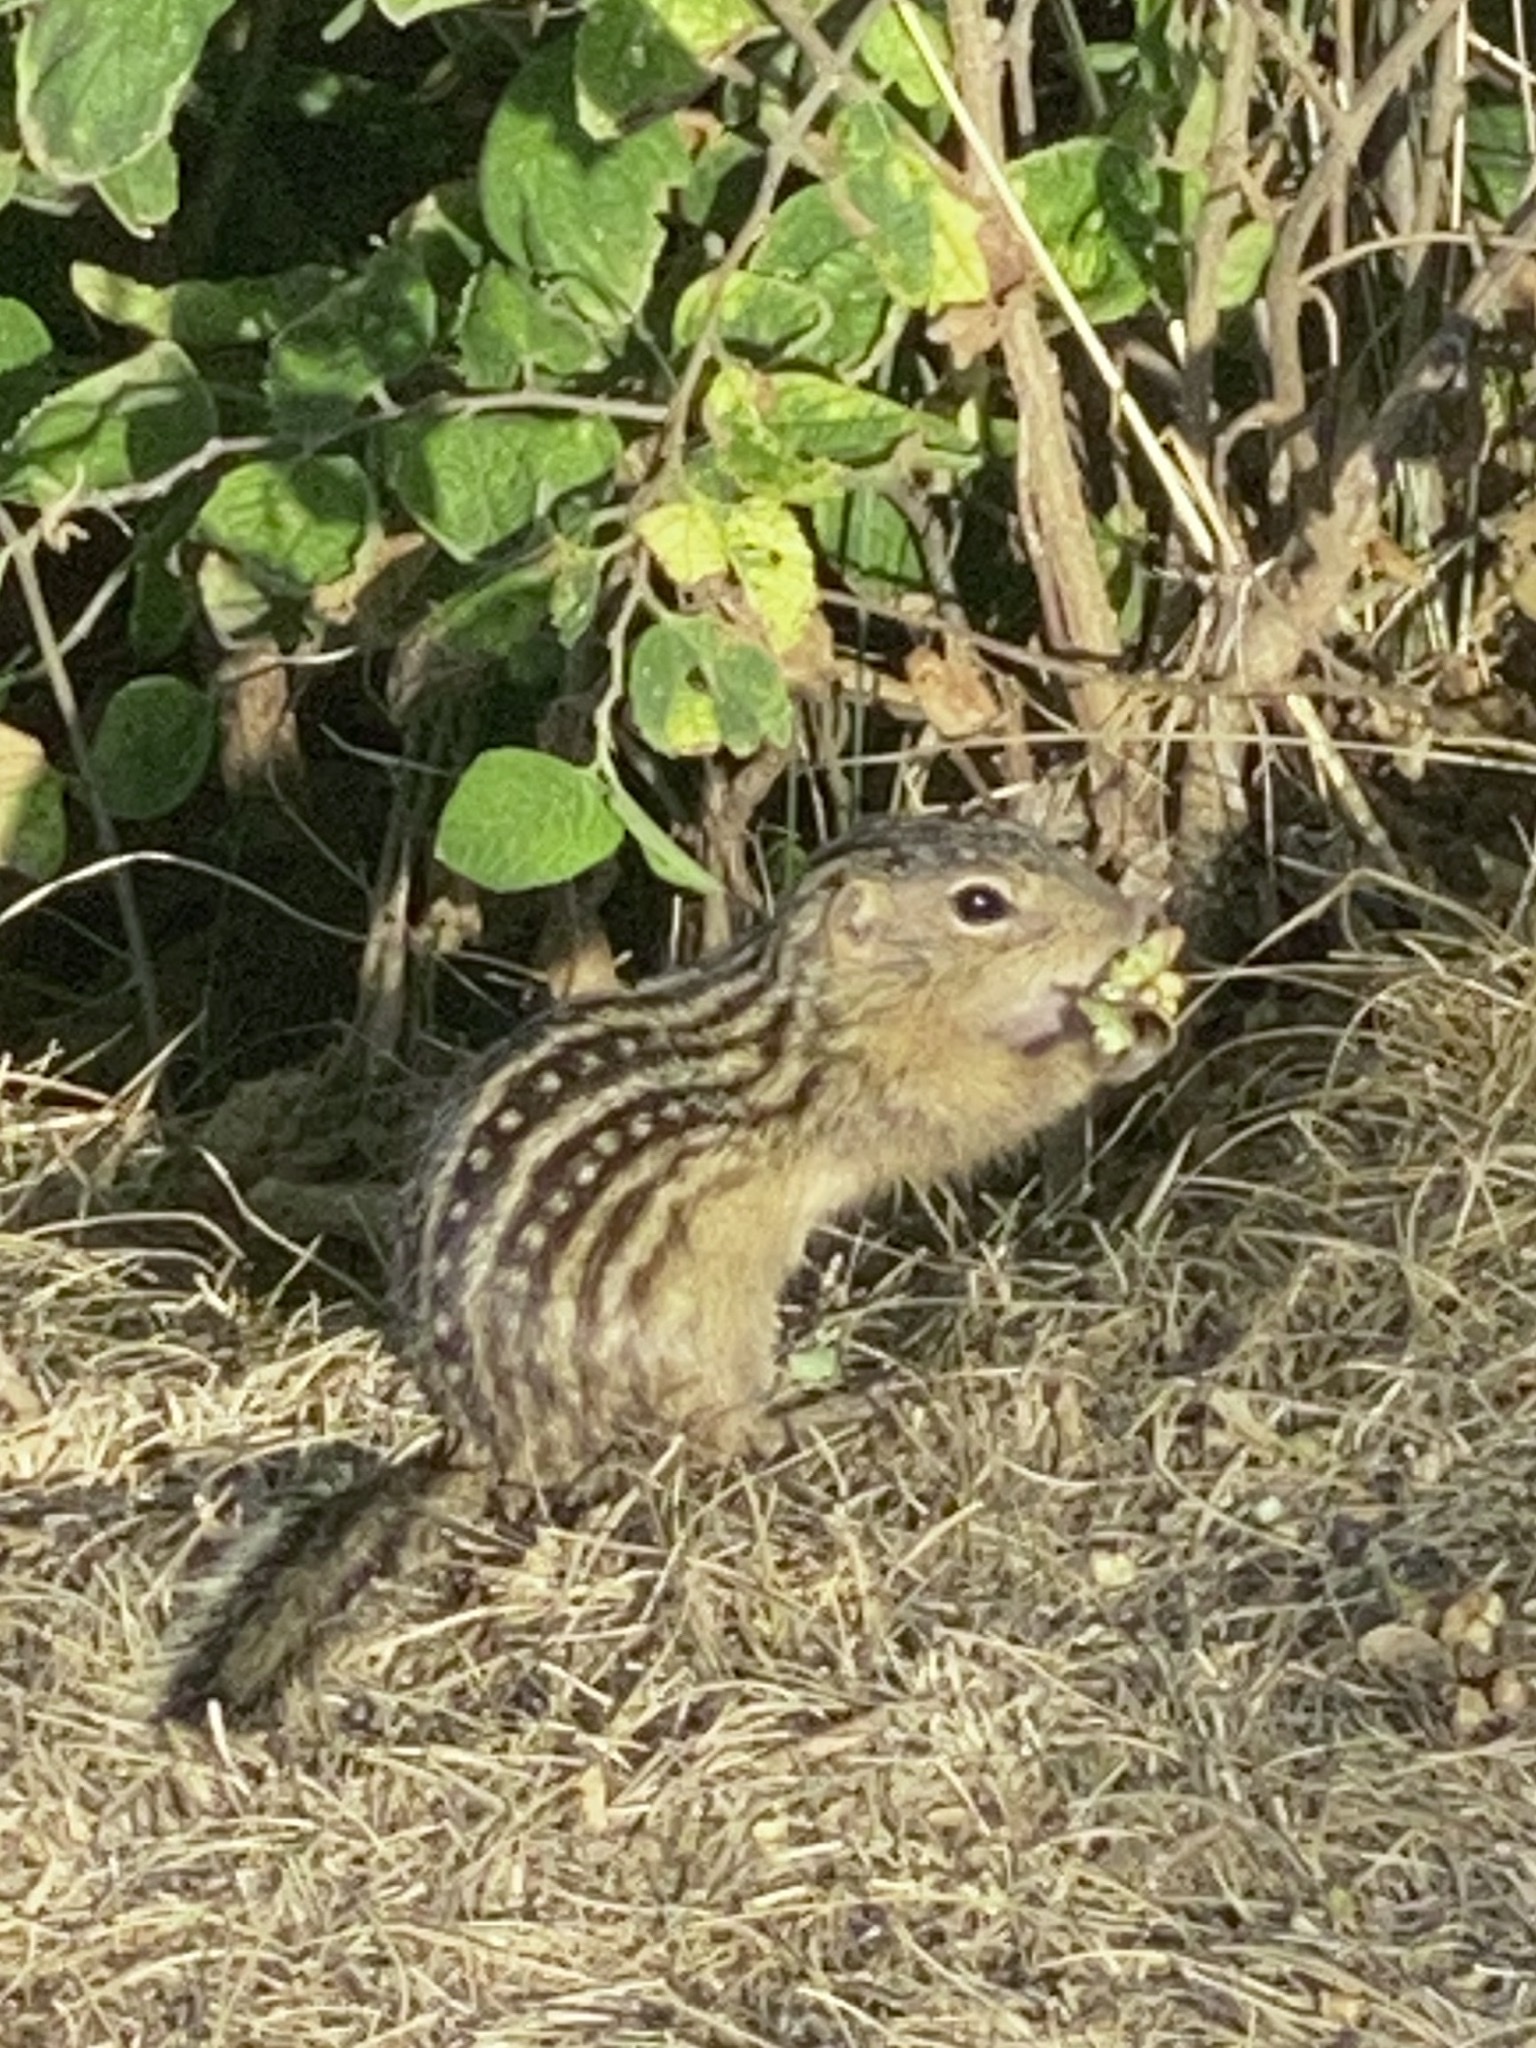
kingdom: Animalia
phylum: Chordata
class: Mammalia
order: Rodentia
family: Sciuridae
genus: Ictidomys
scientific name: Ictidomys tridecemlineatus
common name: Thirteen-lined ground squirrel
